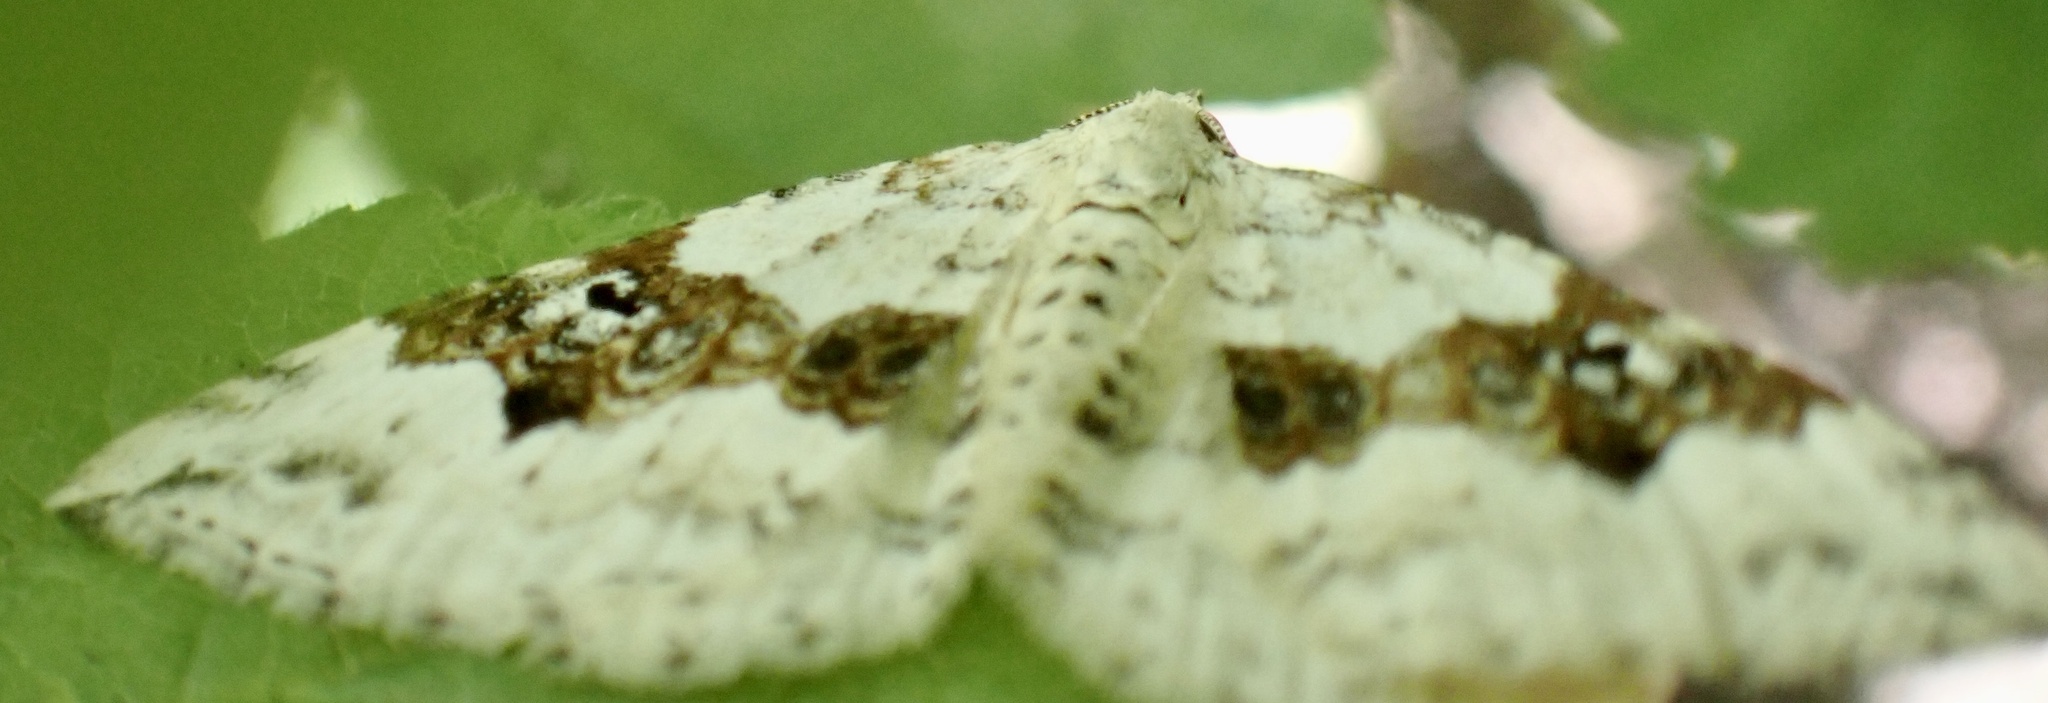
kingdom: Animalia
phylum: Arthropoda
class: Insecta
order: Lepidoptera
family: Geometridae
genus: Xanthorhoe
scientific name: Xanthorhoe montanata
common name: Silver-ground carpet
